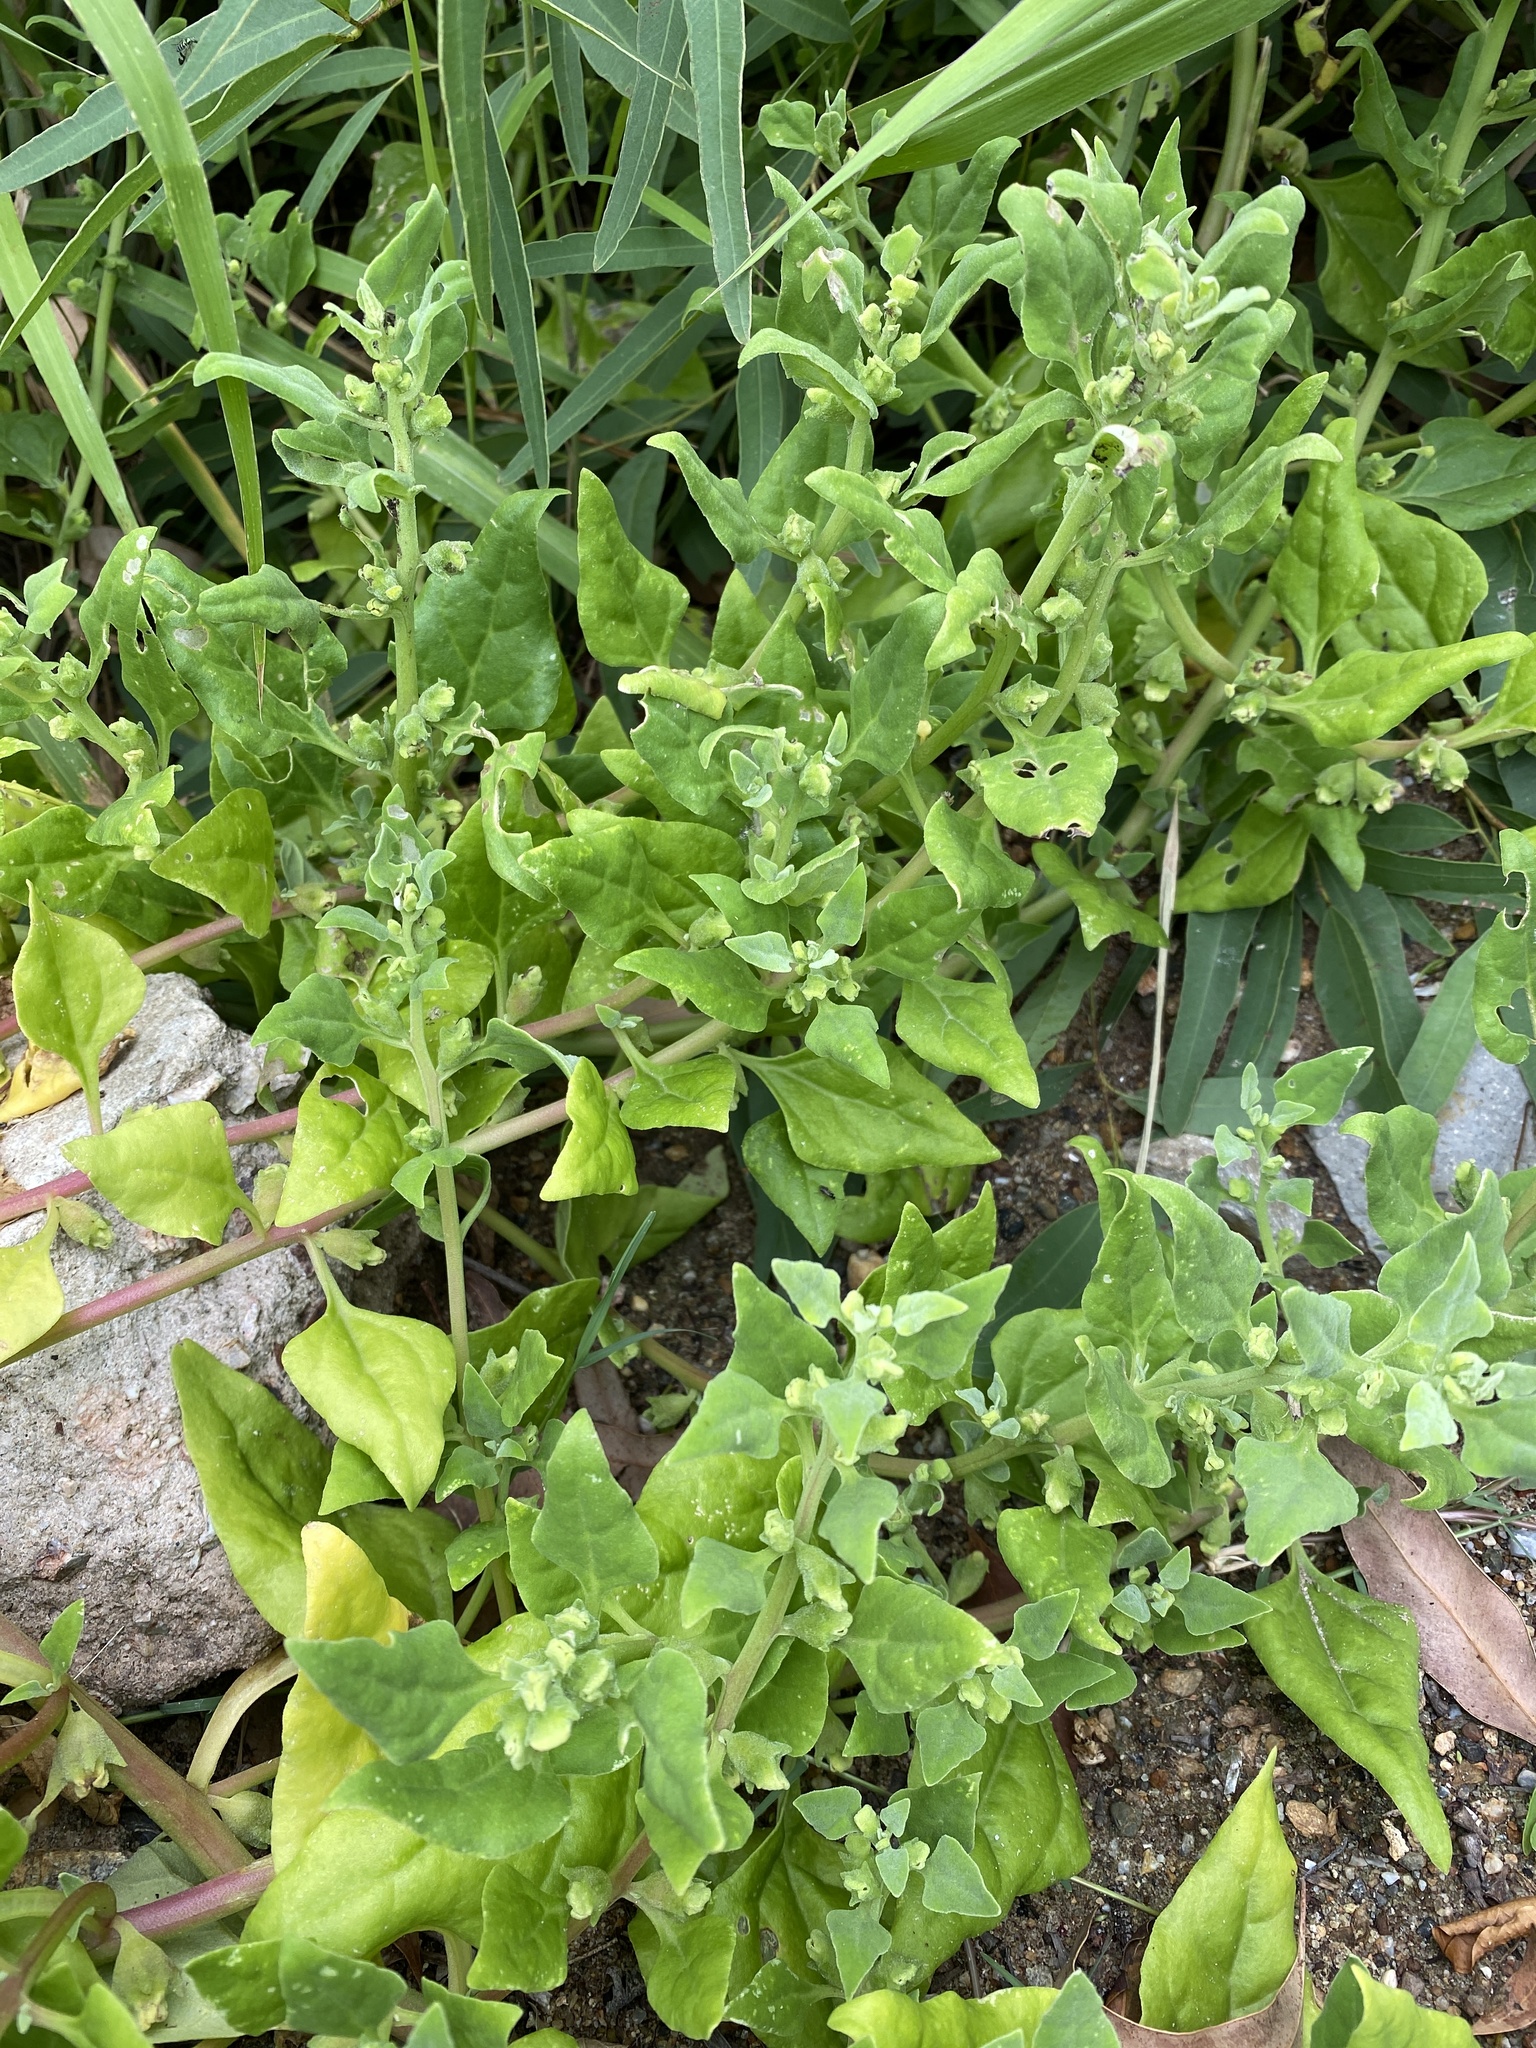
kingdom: Plantae
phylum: Tracheophyta
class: Magnoliopsida
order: Caryophyllales
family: Aizoaceae
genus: Tetragonia
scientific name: Tetragonia tetragonoides
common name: New zealand-spinach
